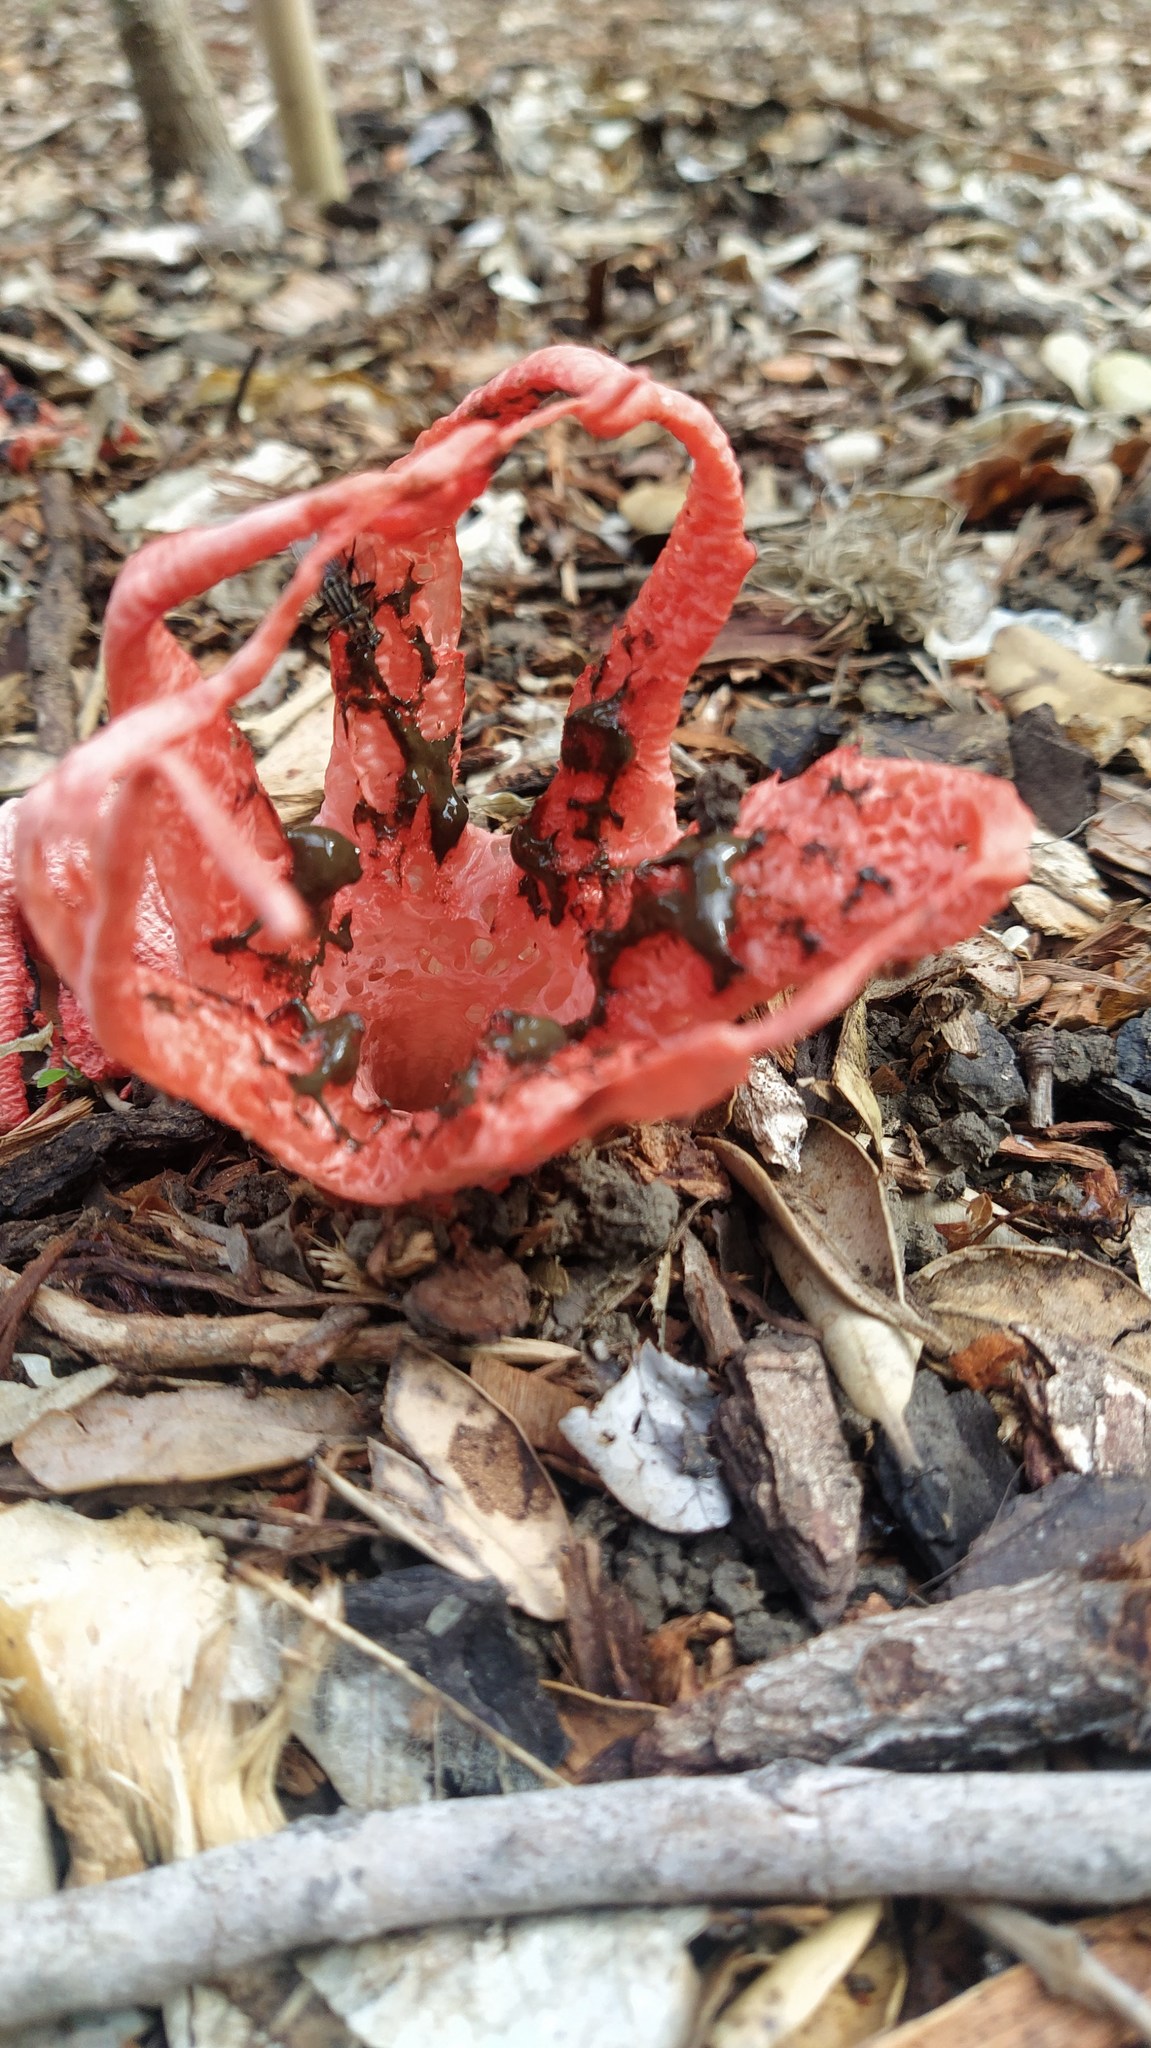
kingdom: Fungi
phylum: Basidiomycota
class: Agaricomycetes
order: Phallales
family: Phallaceae
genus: Clathrus
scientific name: Clathrus archeri
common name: Devil's fingers
